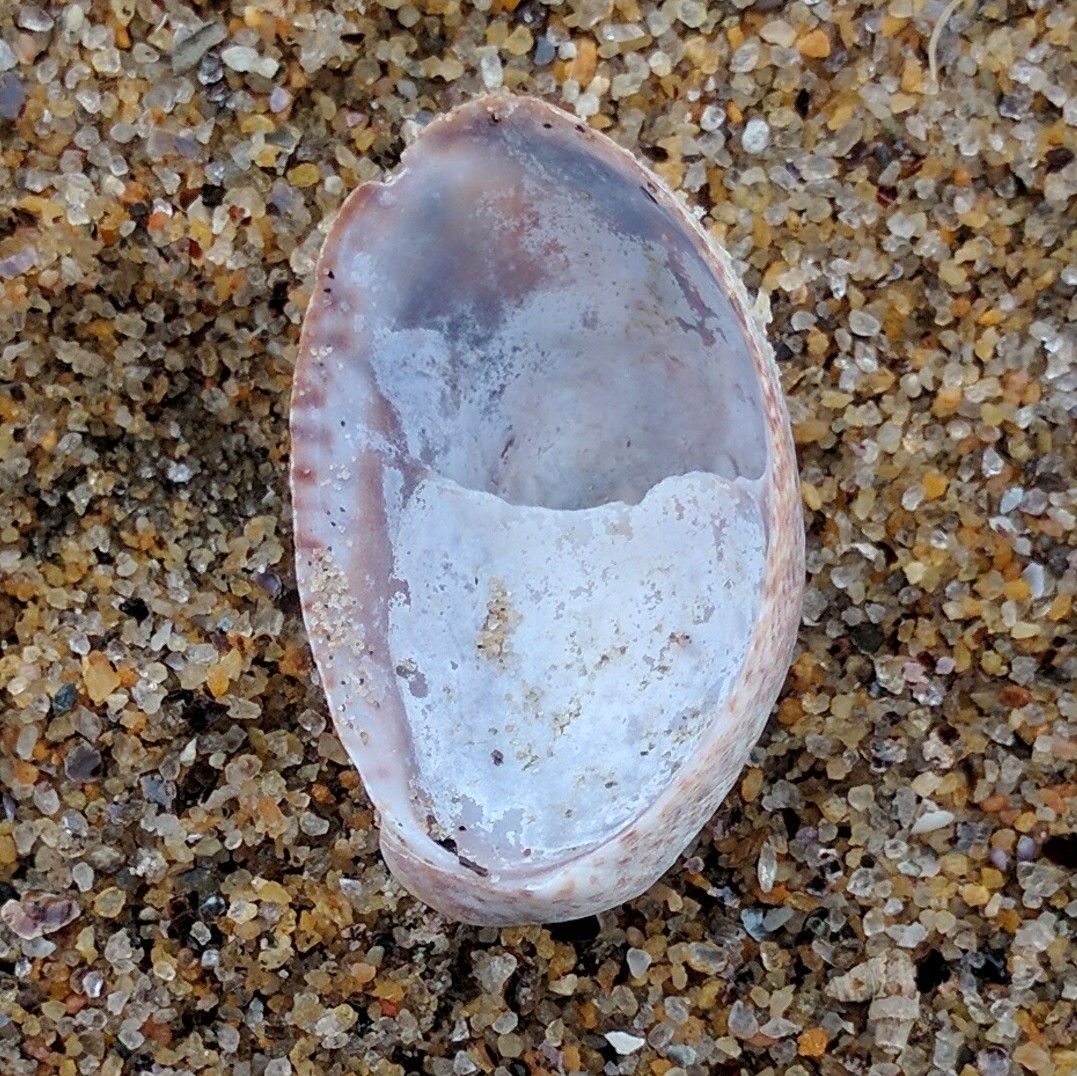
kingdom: Animalia
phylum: Mollusca
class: Gastropoda
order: Littorinimorpha
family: Calyptraeidae
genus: Crepidula
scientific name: Crepidula fornicata
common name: Slipper limpet
